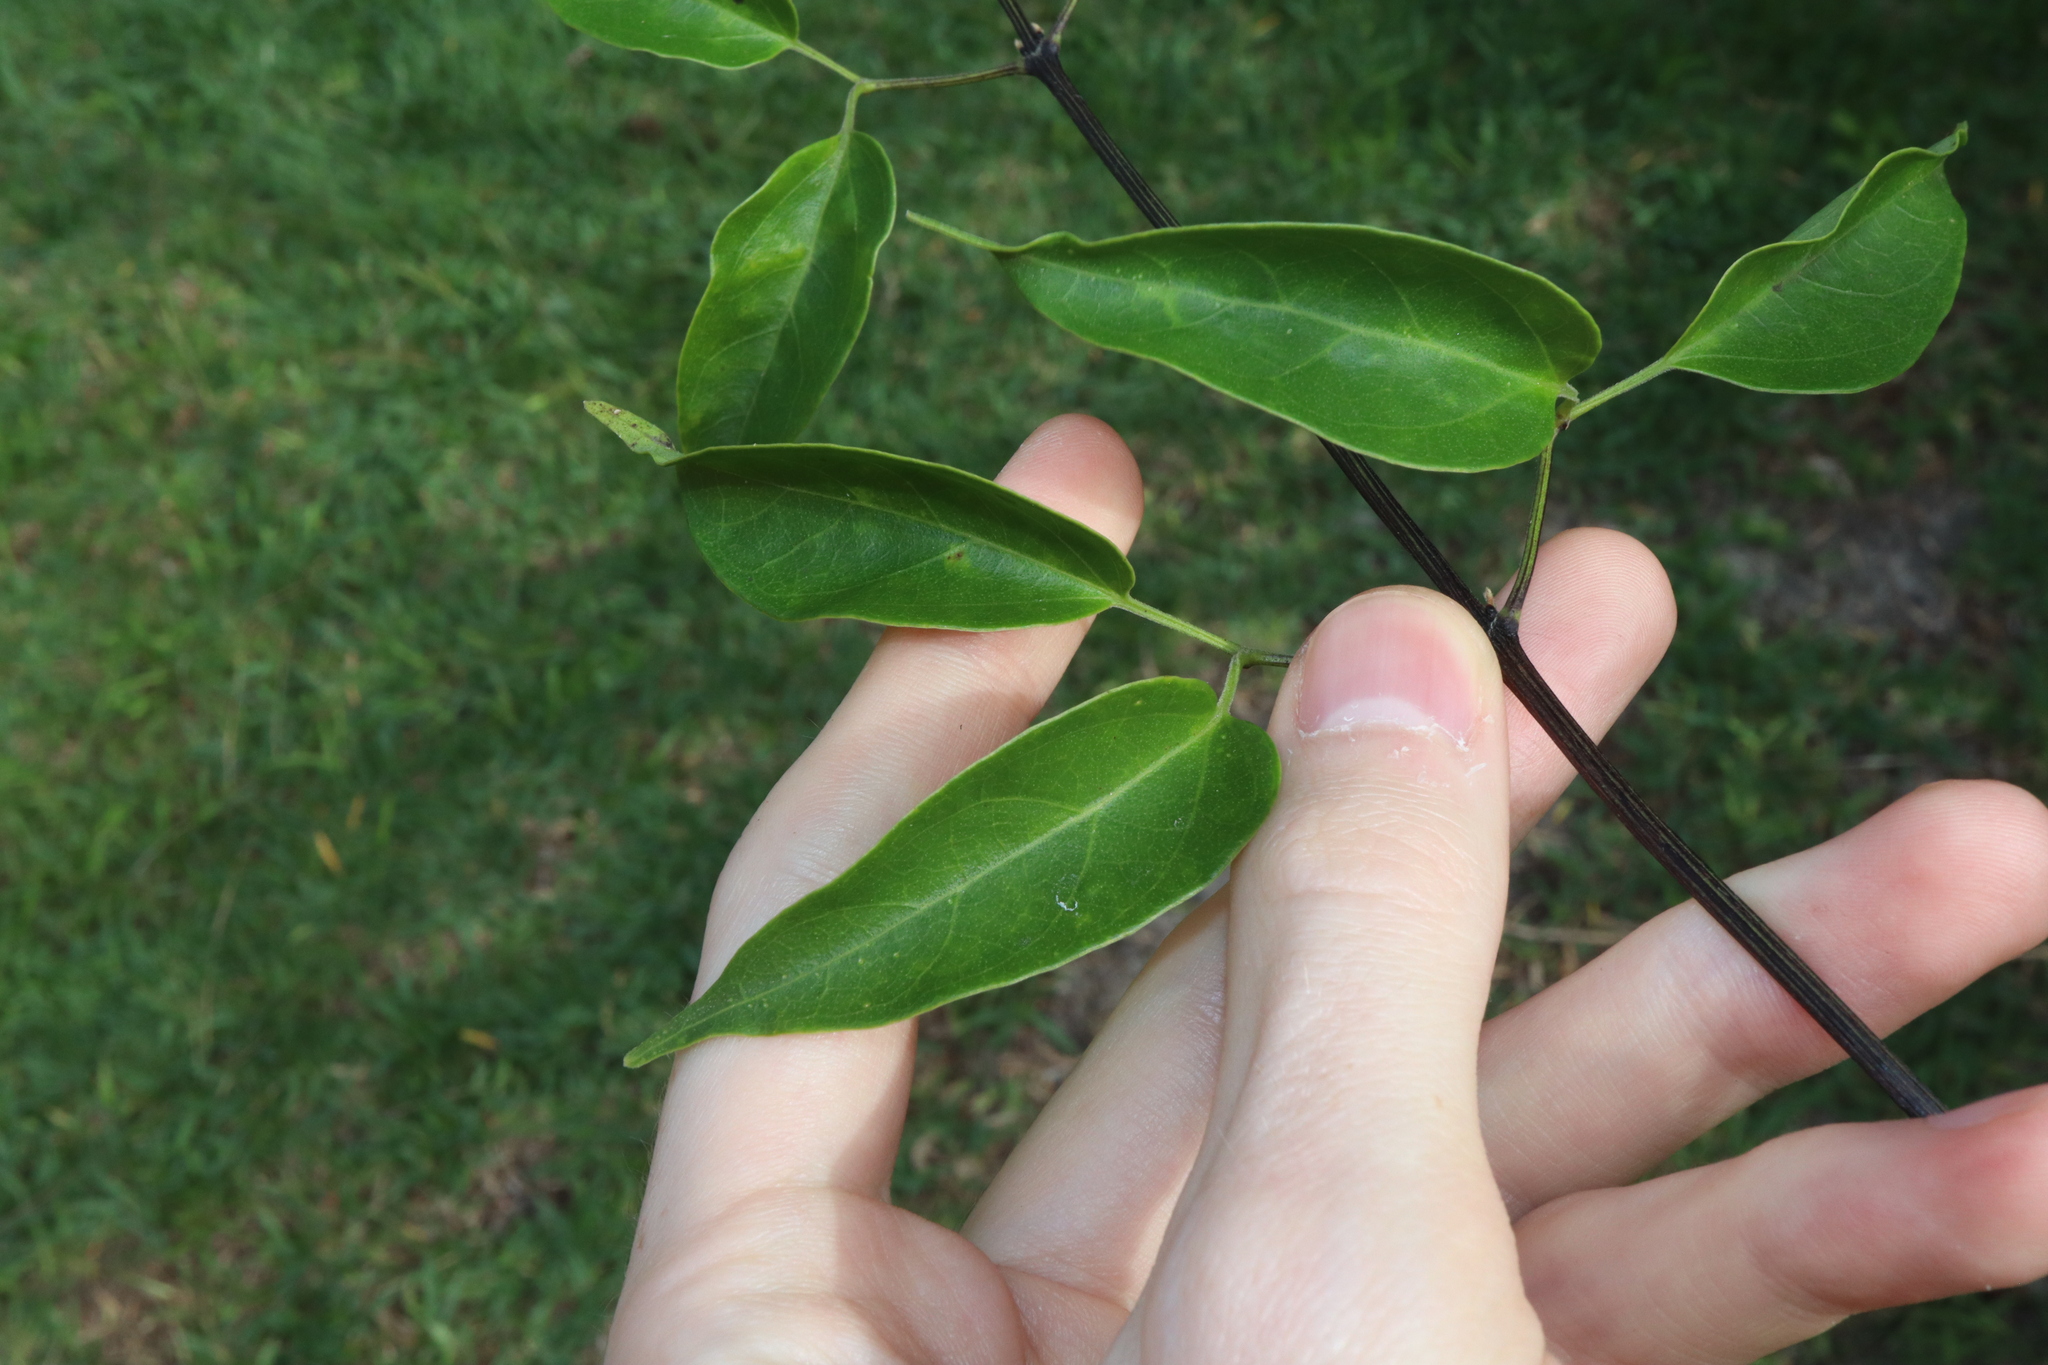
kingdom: Plantae
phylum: Tracheophyta
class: Magnoliopsida
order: Lamiales
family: Bignoniaceae
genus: Pyrostegia
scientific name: Pyrostegia venusta
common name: Flamevine
